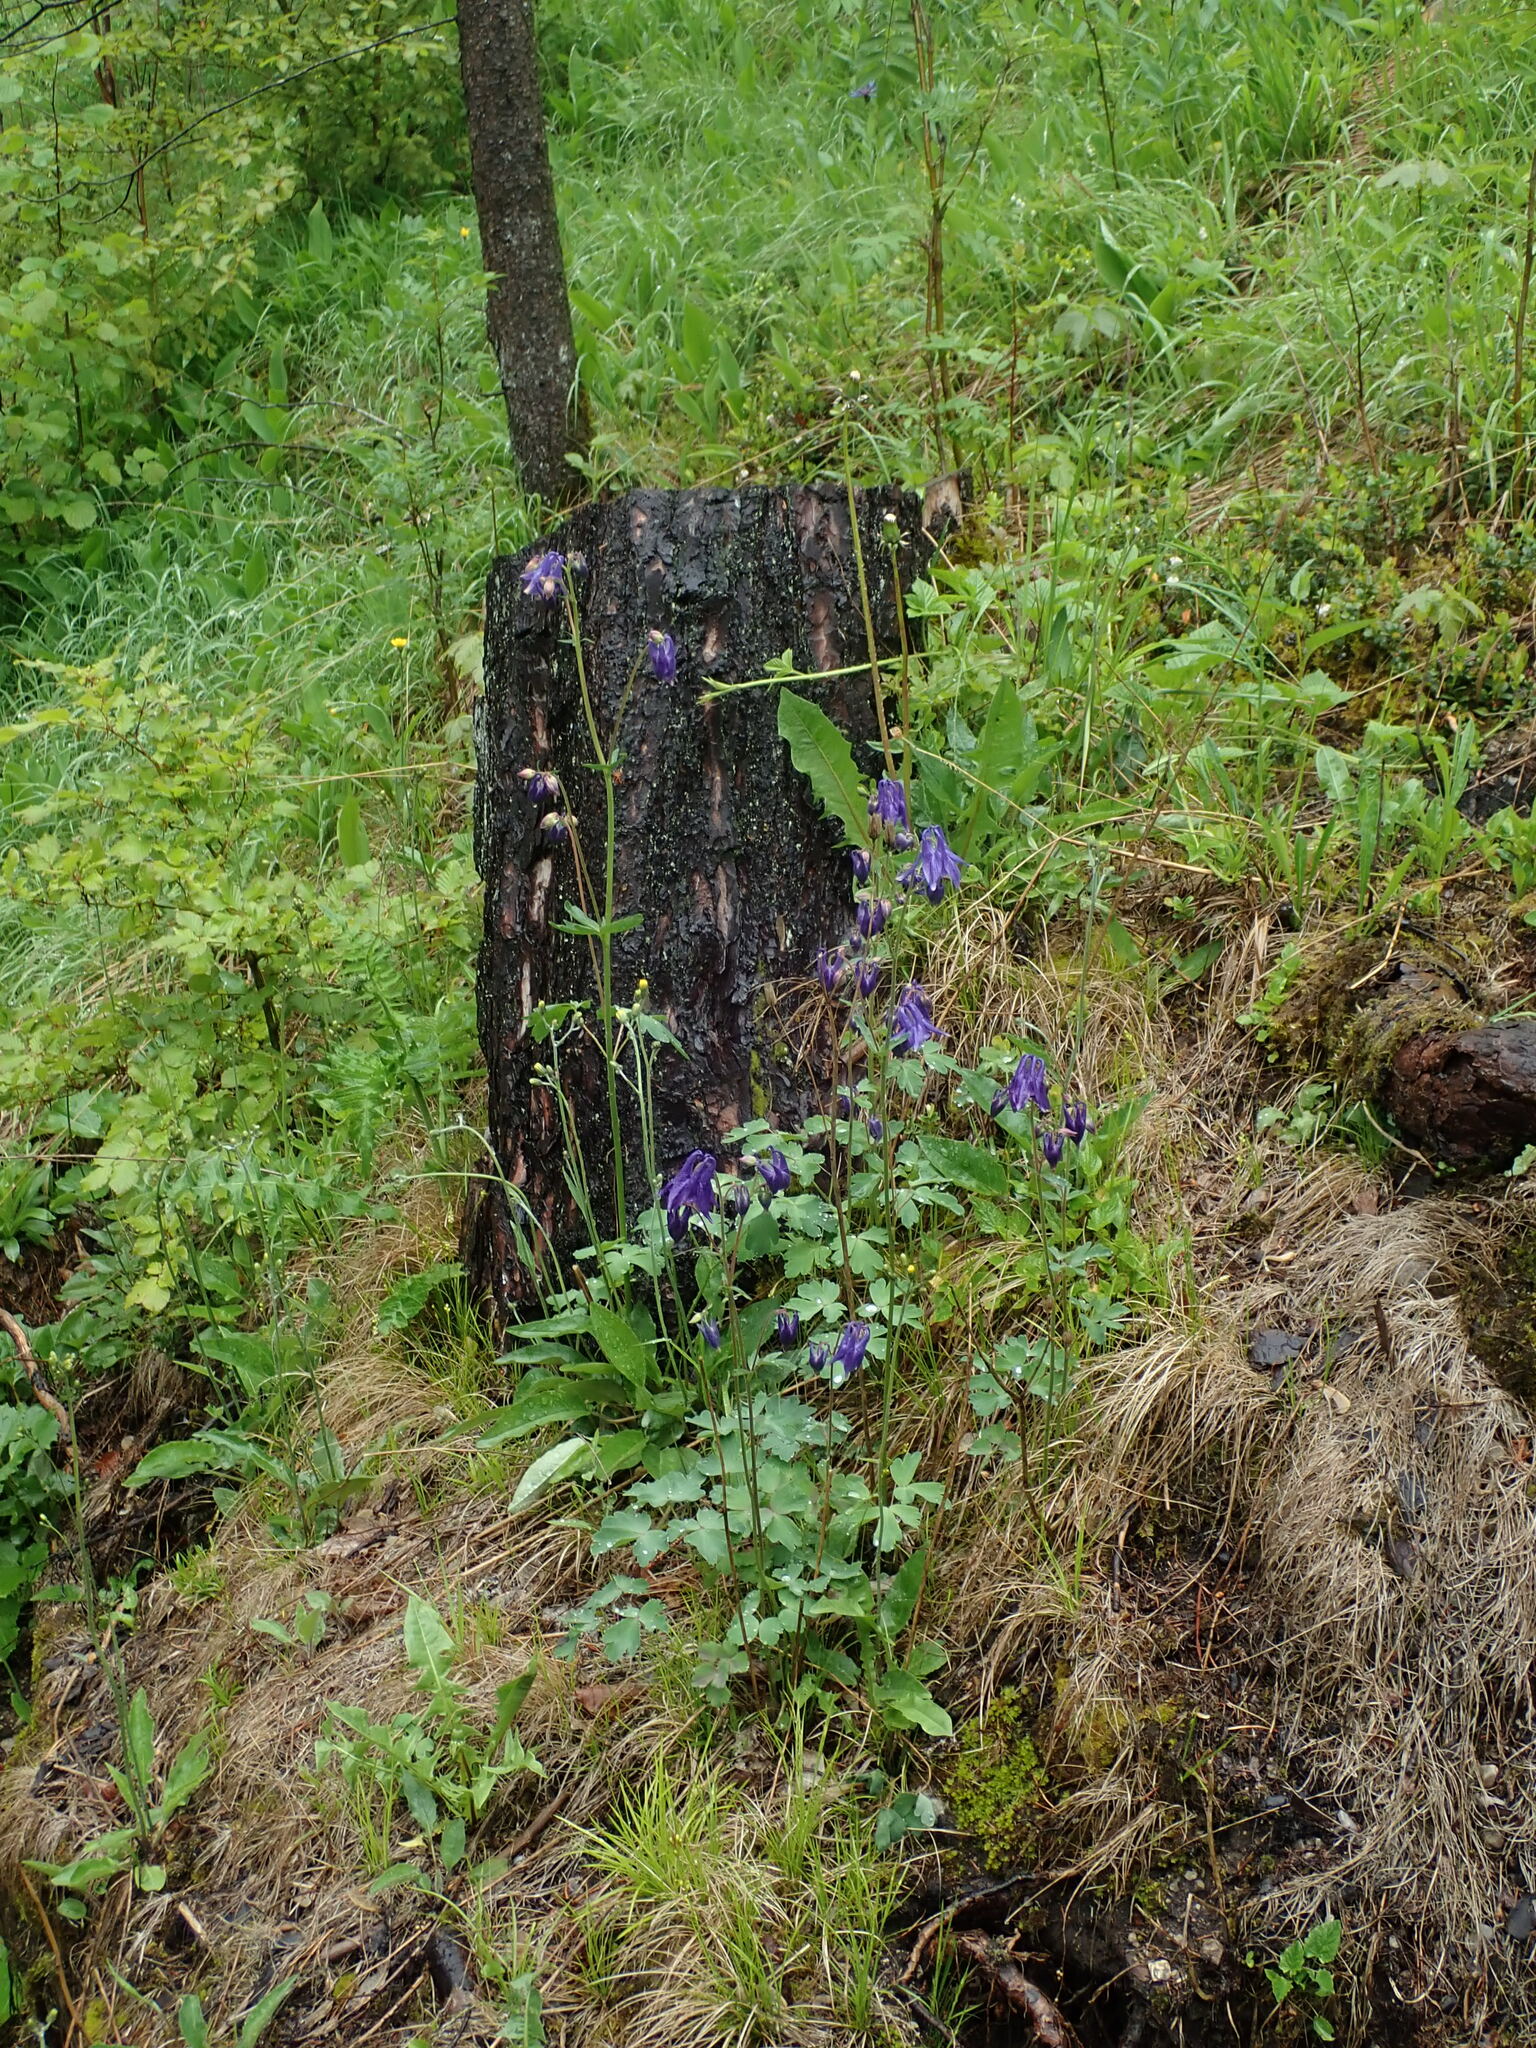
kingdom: Plantae
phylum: Tracheophyta
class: Magnoliopsida
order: Ranunculales
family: Ranunculaceae
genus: Aquilegia
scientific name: Aquilegia vulgaris
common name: Columbine
